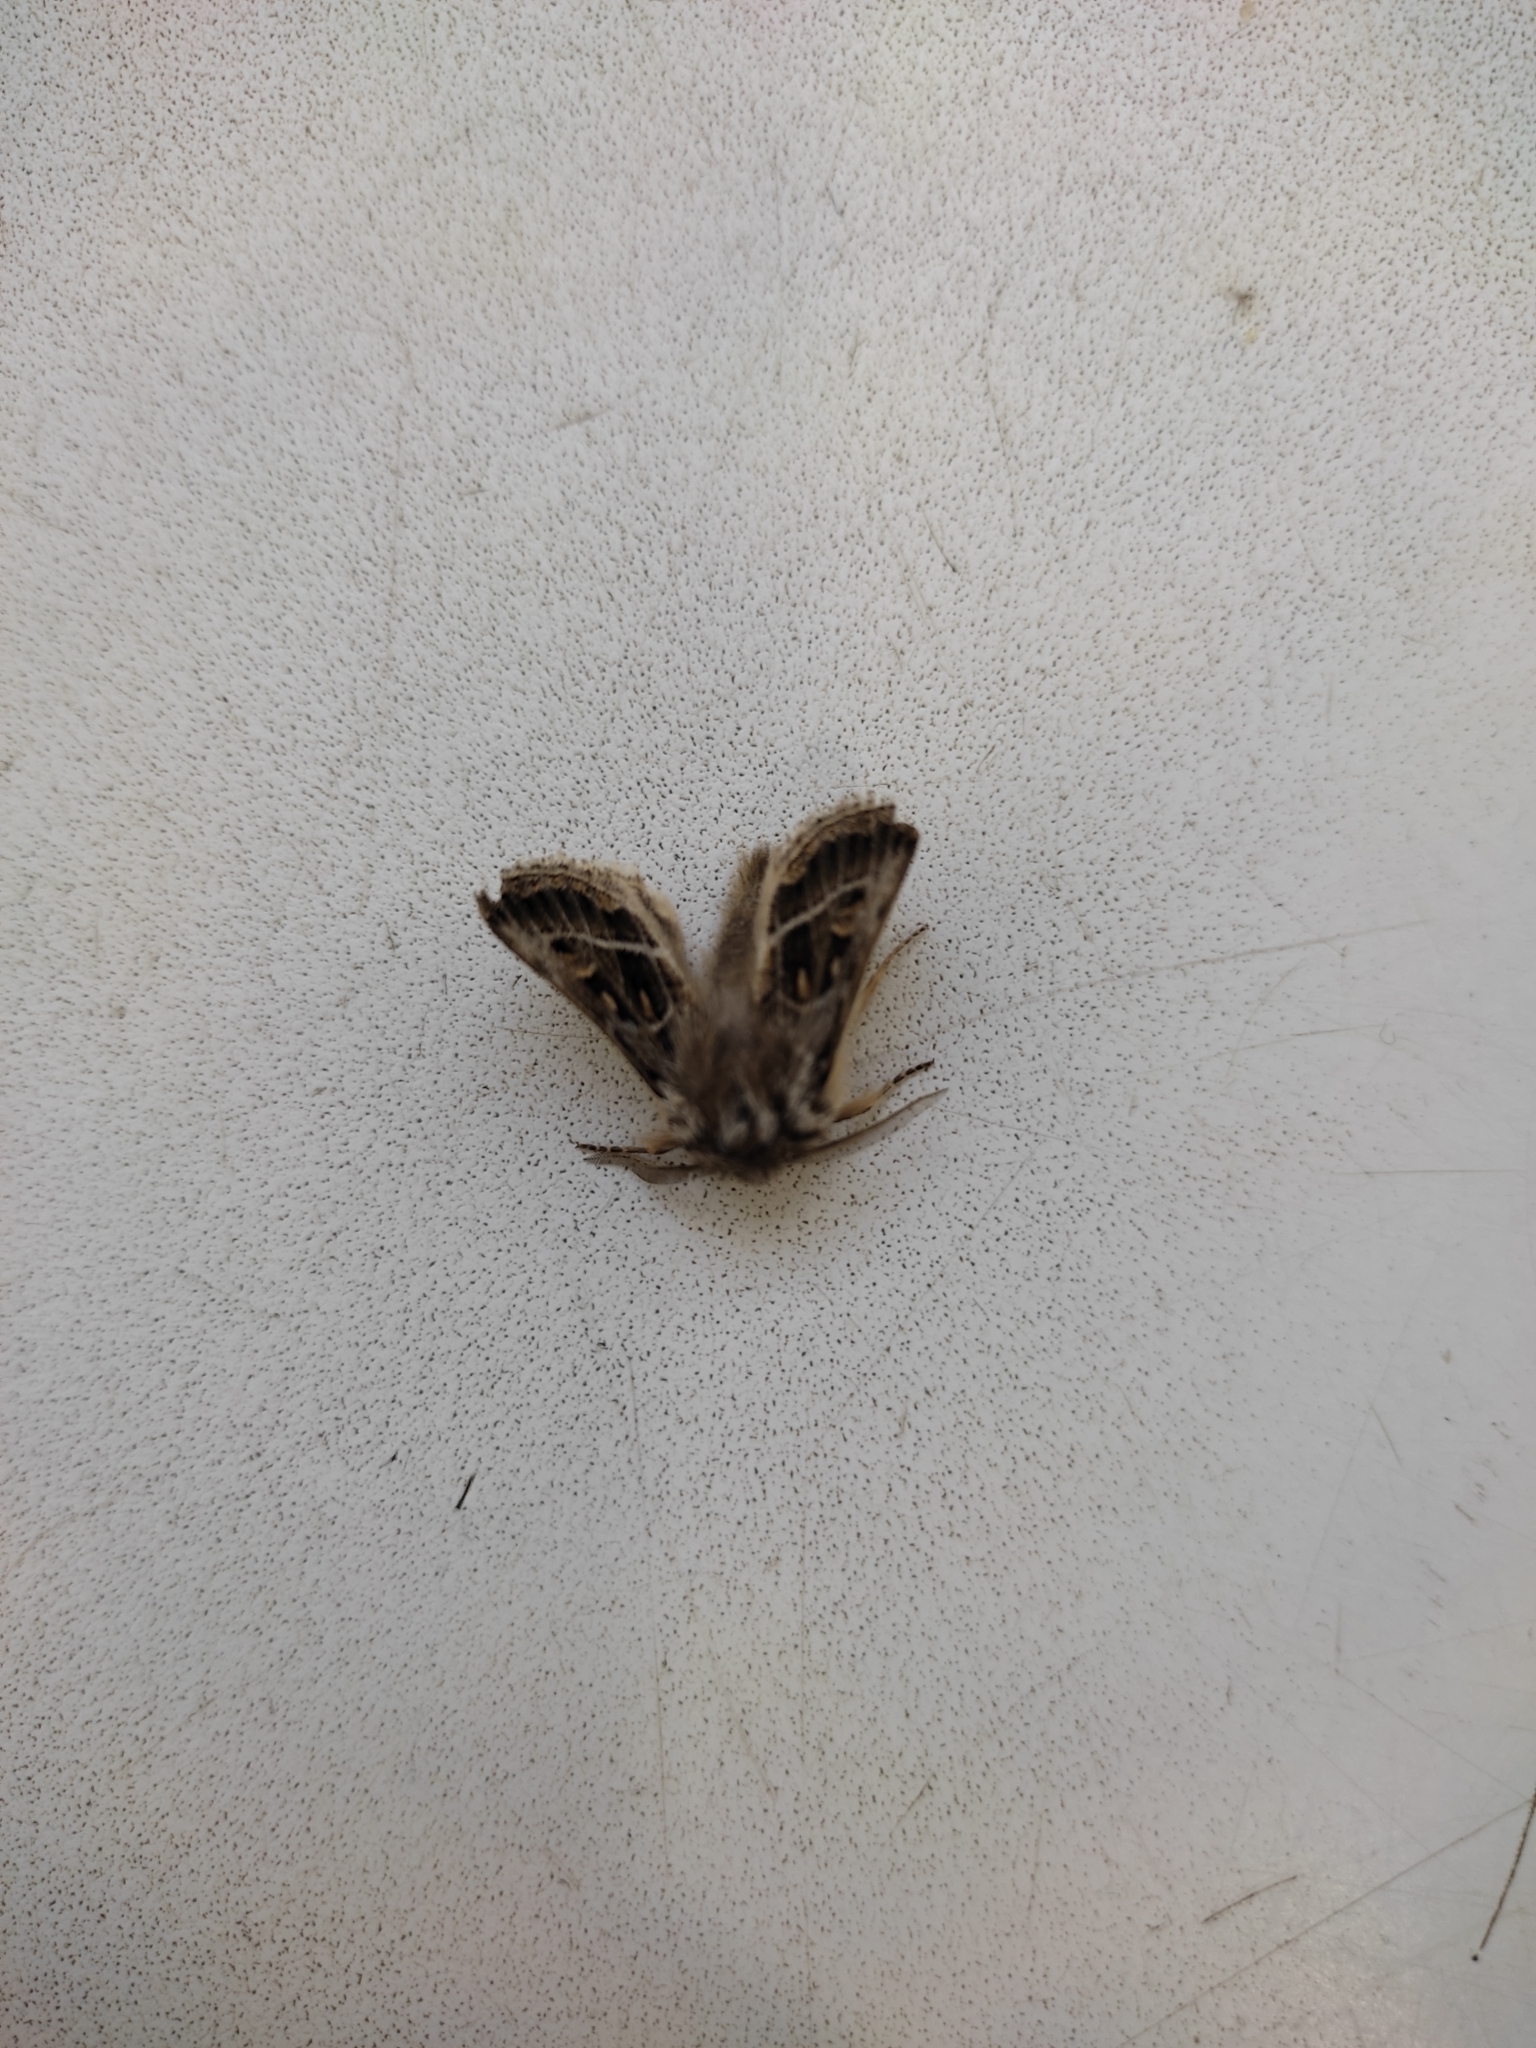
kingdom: Animalia
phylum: Arthropoda
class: Insecta
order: Lepidoptera
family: Noctuidae
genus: Ulochlaena
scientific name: Ulochlaena hirta
